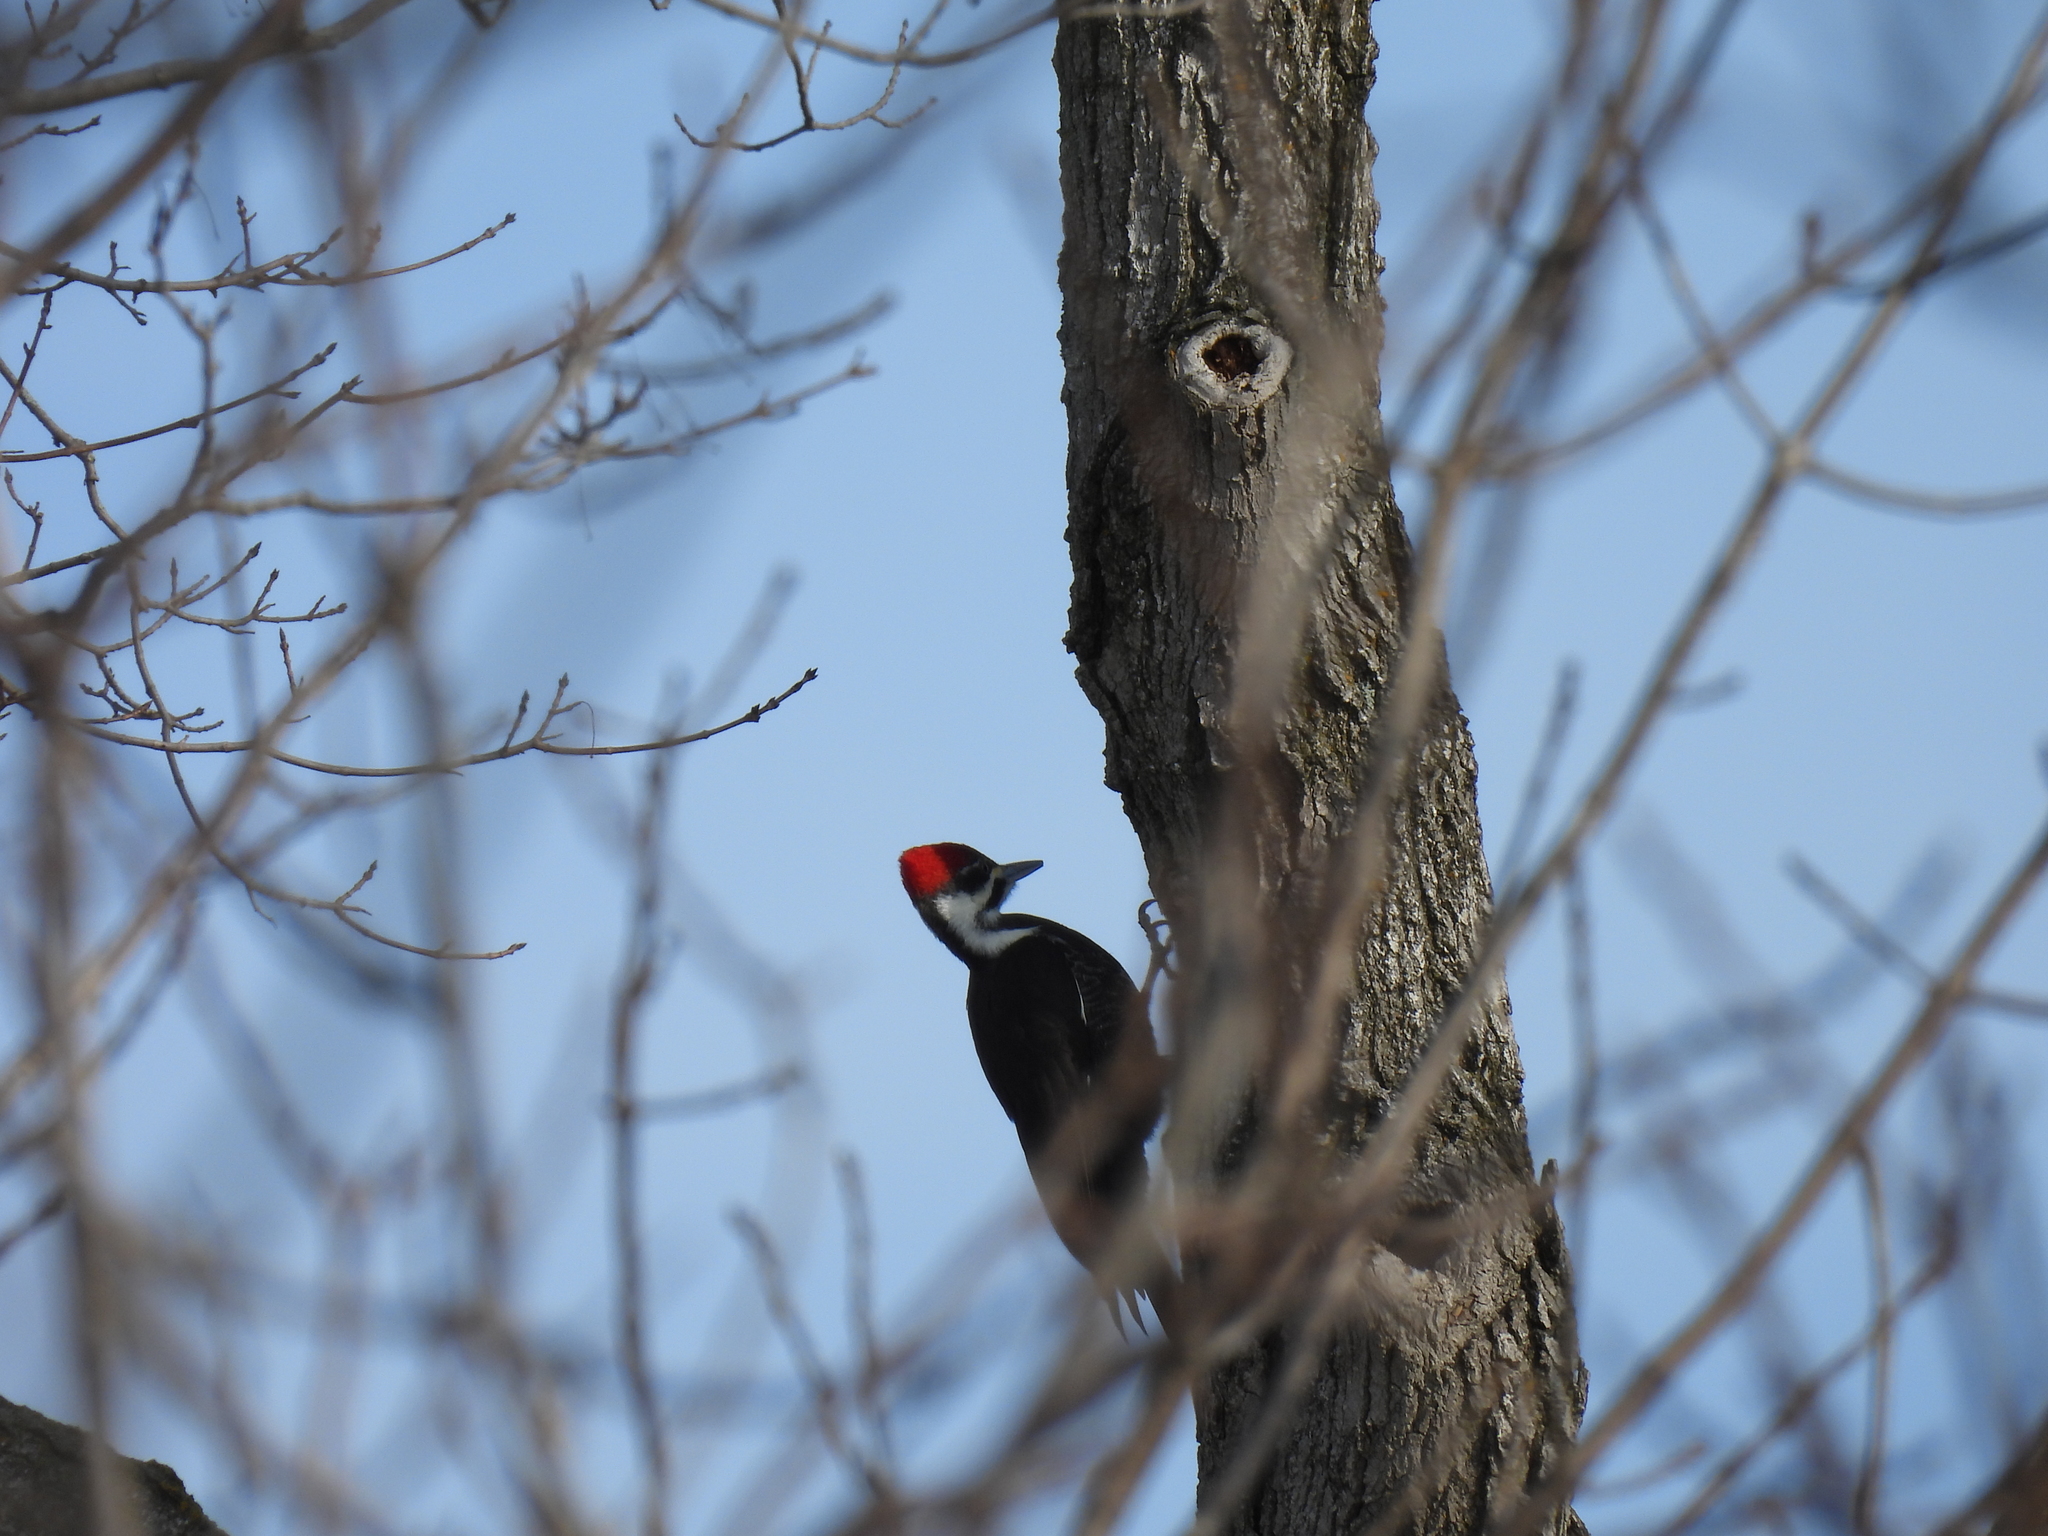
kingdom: Animalia
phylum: Chordata
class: Aves
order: Piciformes
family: Picidae
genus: Dryocopus
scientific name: Dryocopus pileatus
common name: Pileated woodpecker
